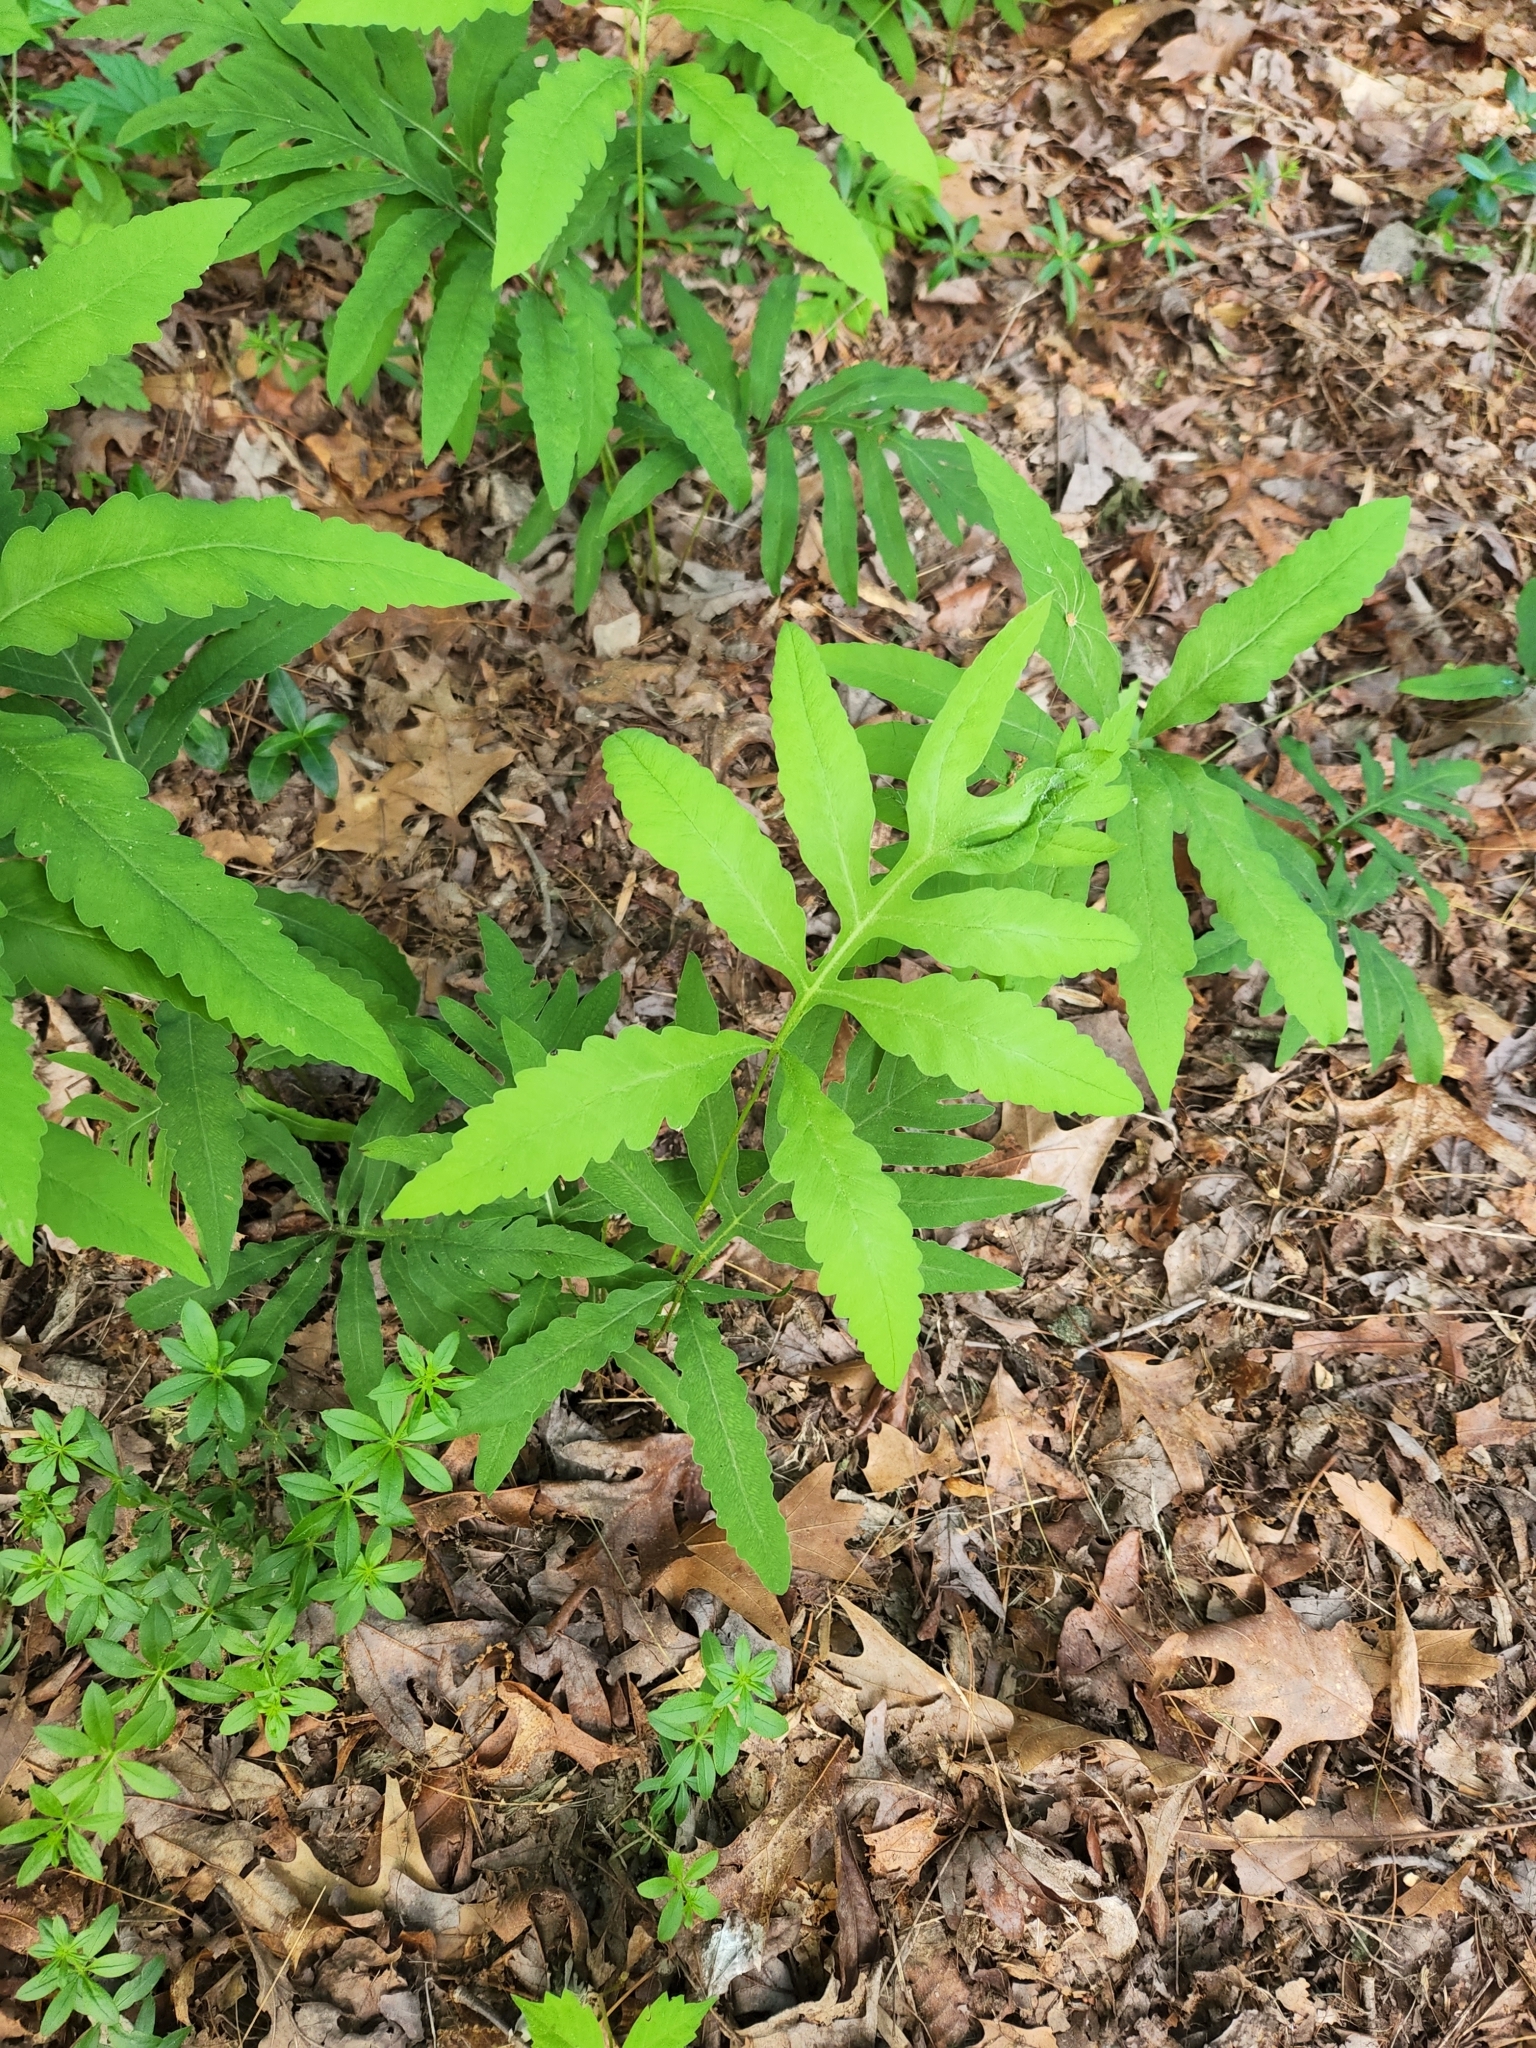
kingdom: Plantae
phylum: Tracheophyta
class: Polypodiopsida
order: Polypodiales
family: Onocleaceae
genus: Onoclea
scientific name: Onoclea sensibilis
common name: Sensitive fern
